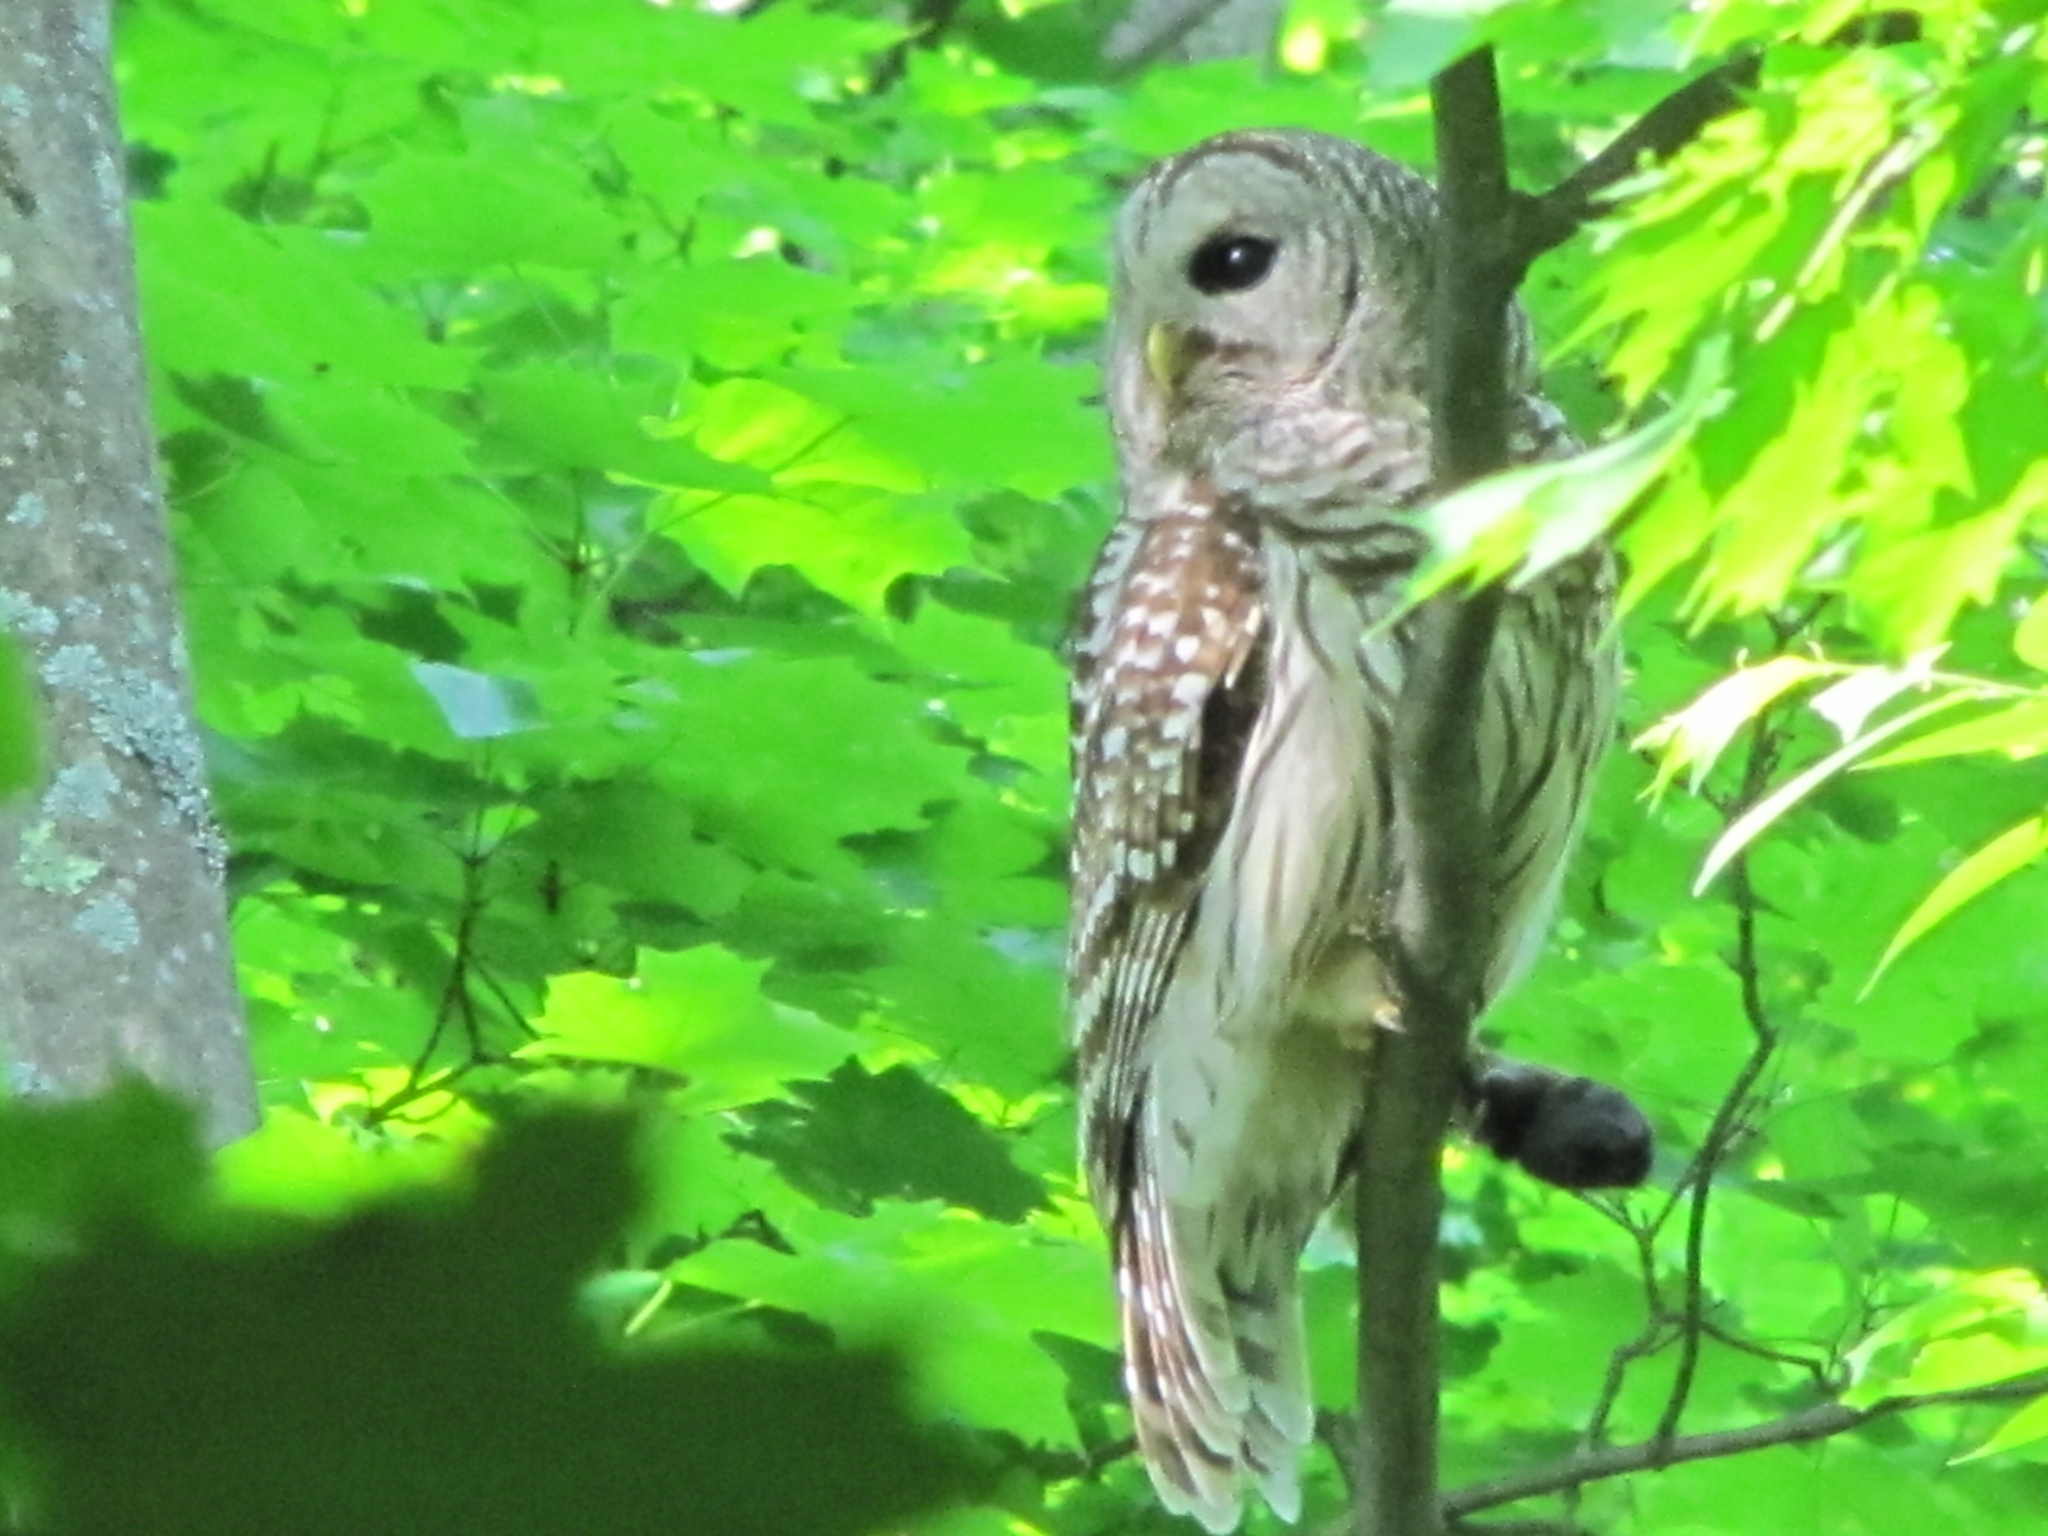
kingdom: Animalia
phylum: Chordata
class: Aves
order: Strigiformes
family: Strigidae
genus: Strix
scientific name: Strix varia
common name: Barred owl
